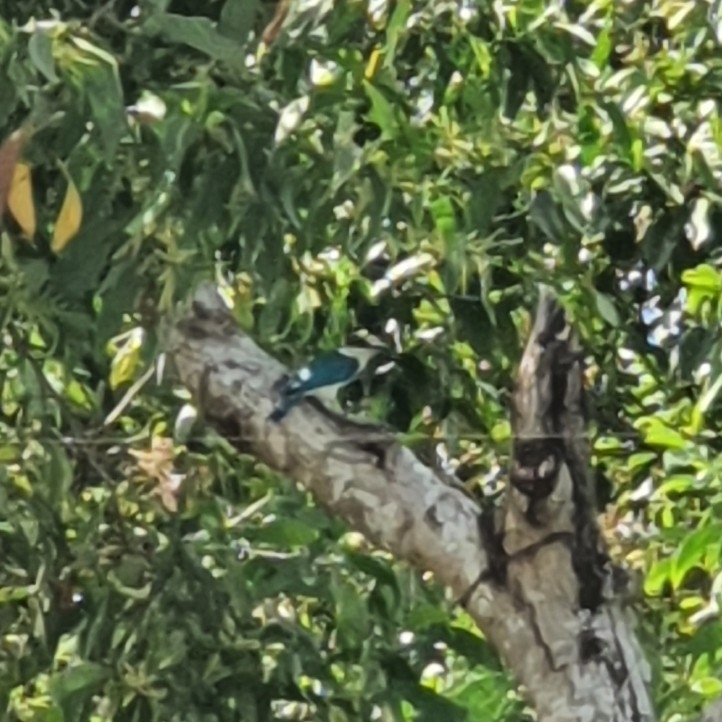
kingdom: Animalia
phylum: Chordata
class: Aves
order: Coraciiformes
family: Alcedinidae
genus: Todiramphus
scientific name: Todiramphus chloris
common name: Collared kingfisher
